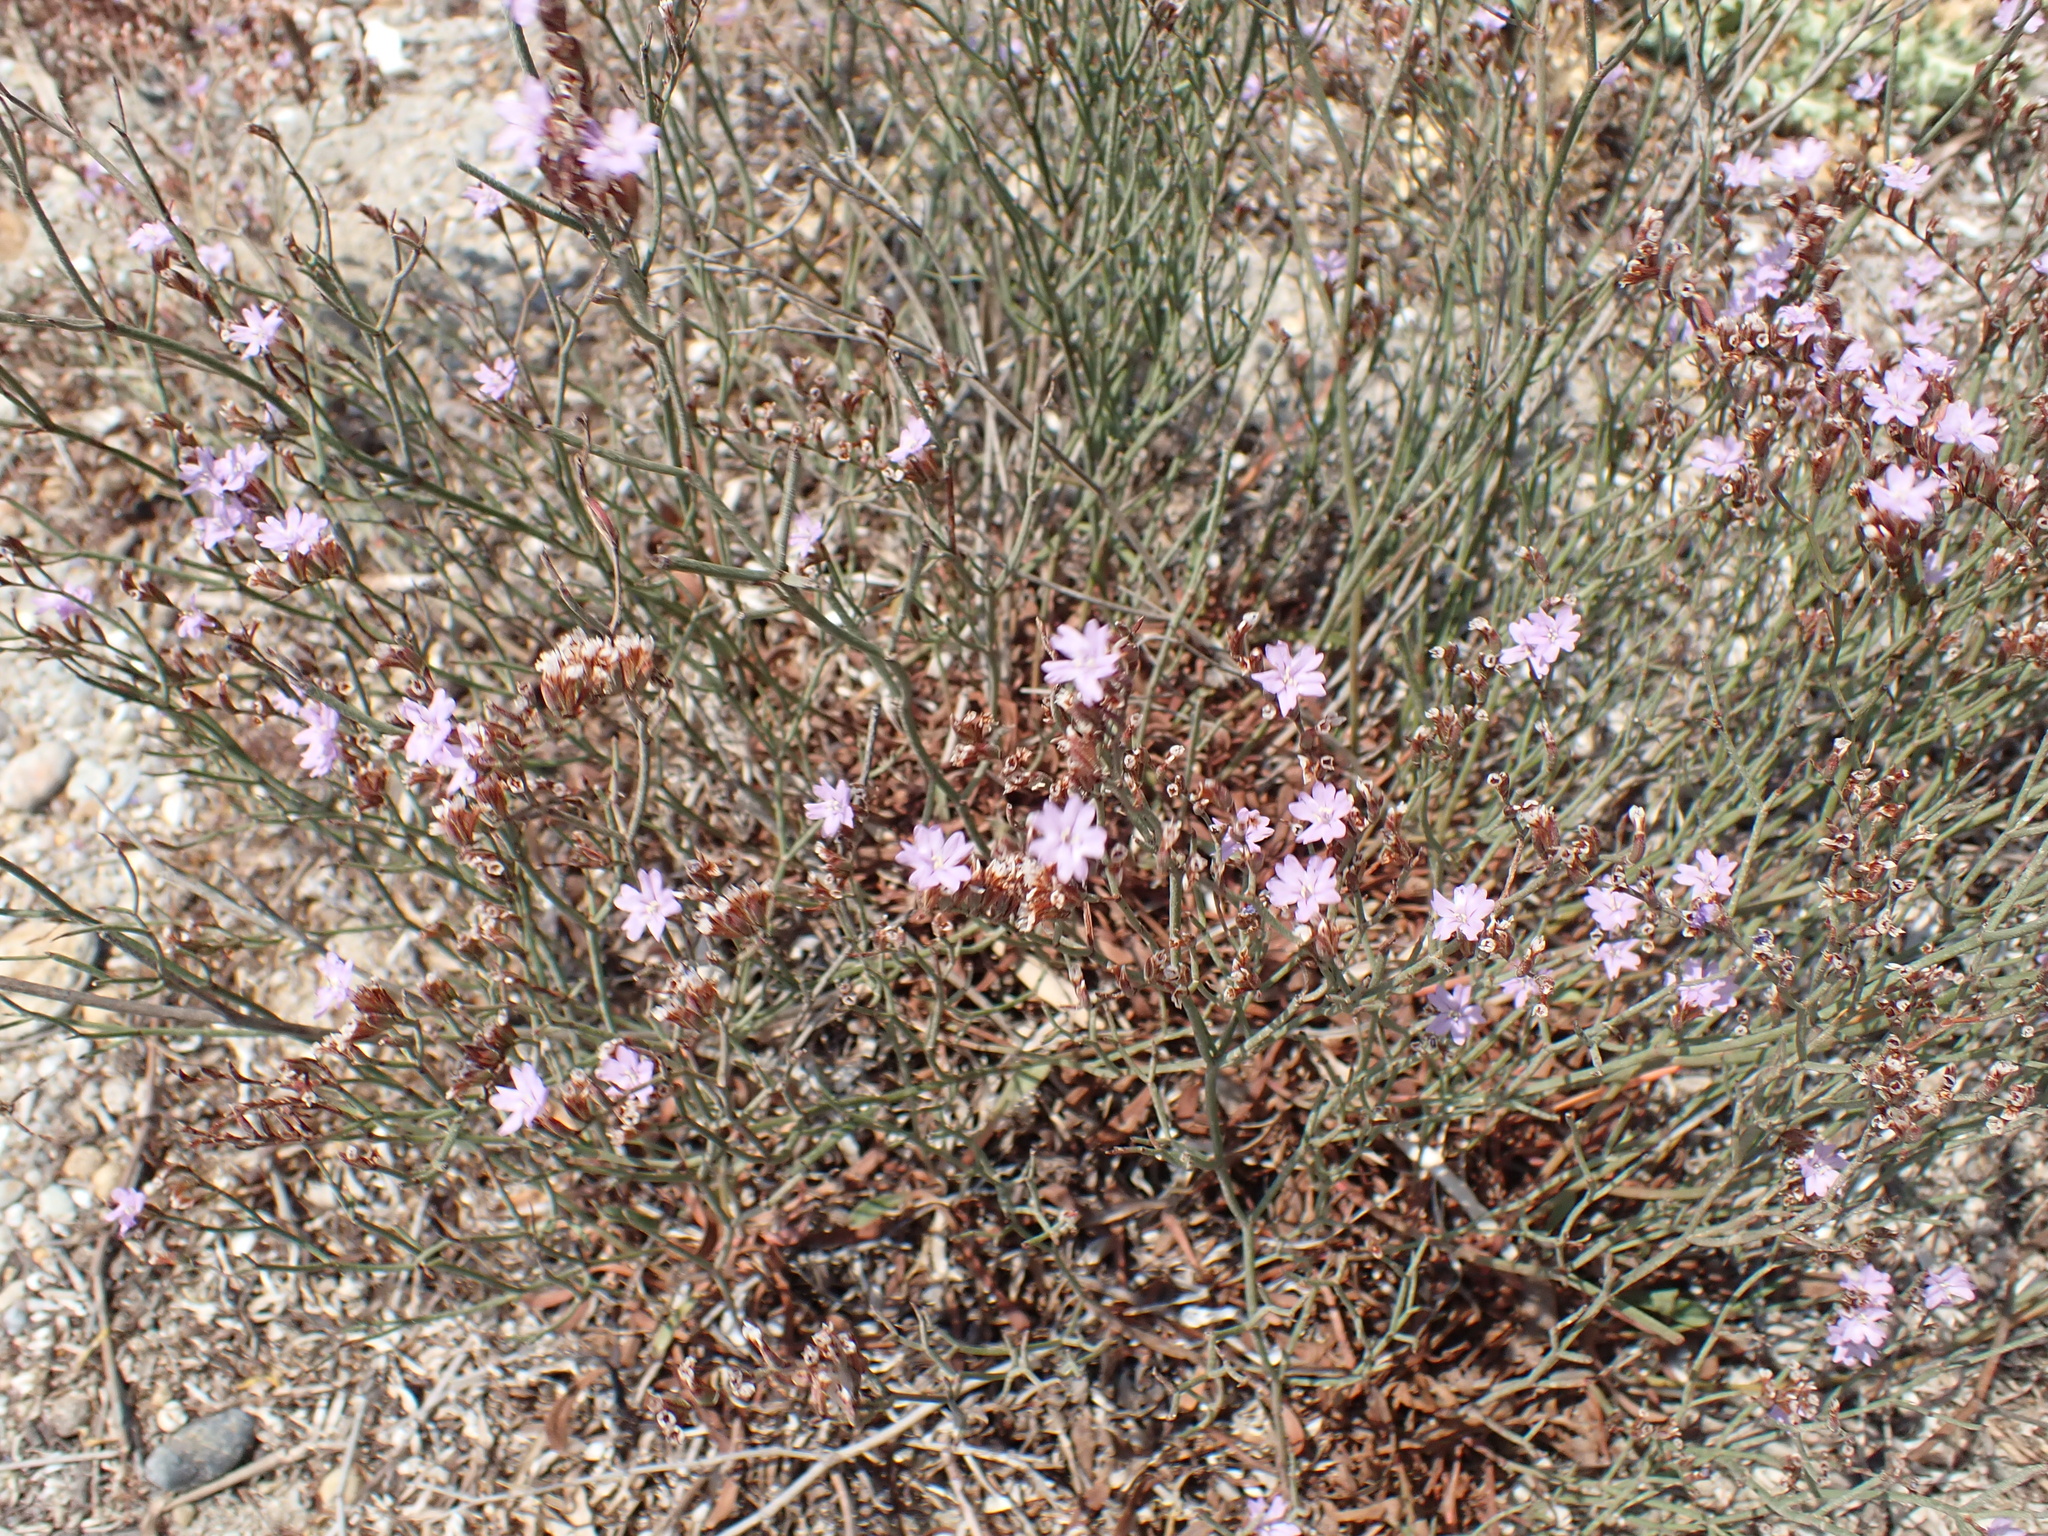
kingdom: Plantae
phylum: Tracheophyta
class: Magnoliopsida
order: Caryophyllales
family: Plumbaginaceae
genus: Limonium
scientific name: Limonium virgatum
